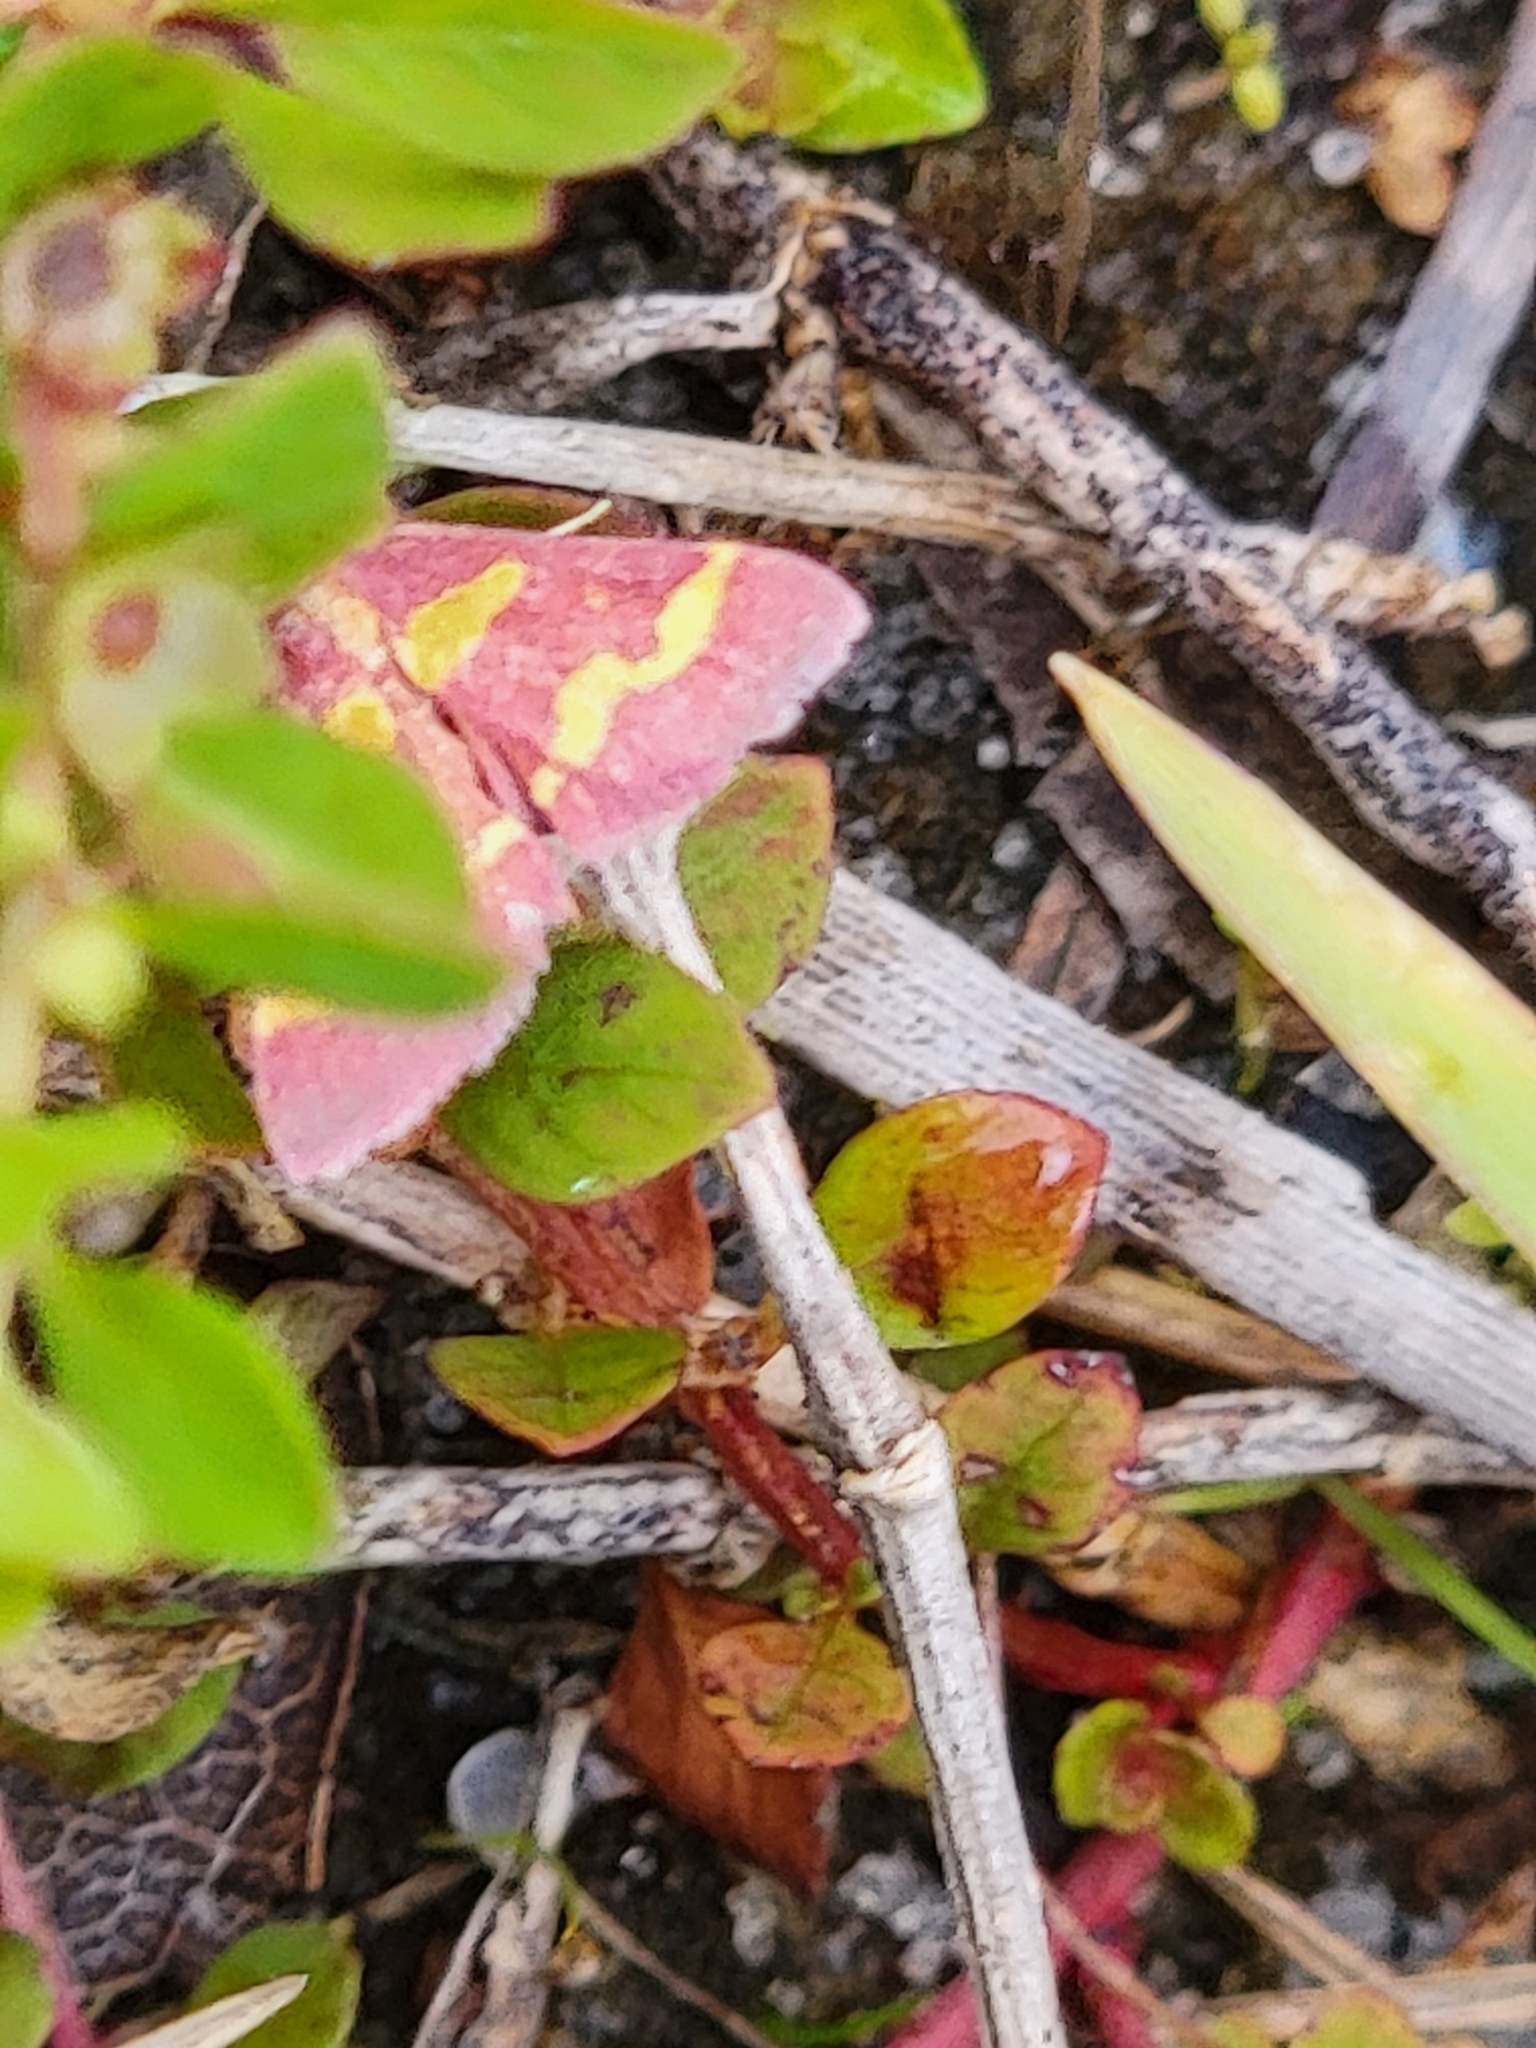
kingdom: Animalia
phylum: Arthropoda
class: Insecta
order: Lepidoptera
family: Crambidae
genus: Pyrausta
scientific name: Pyrausta tyralis
